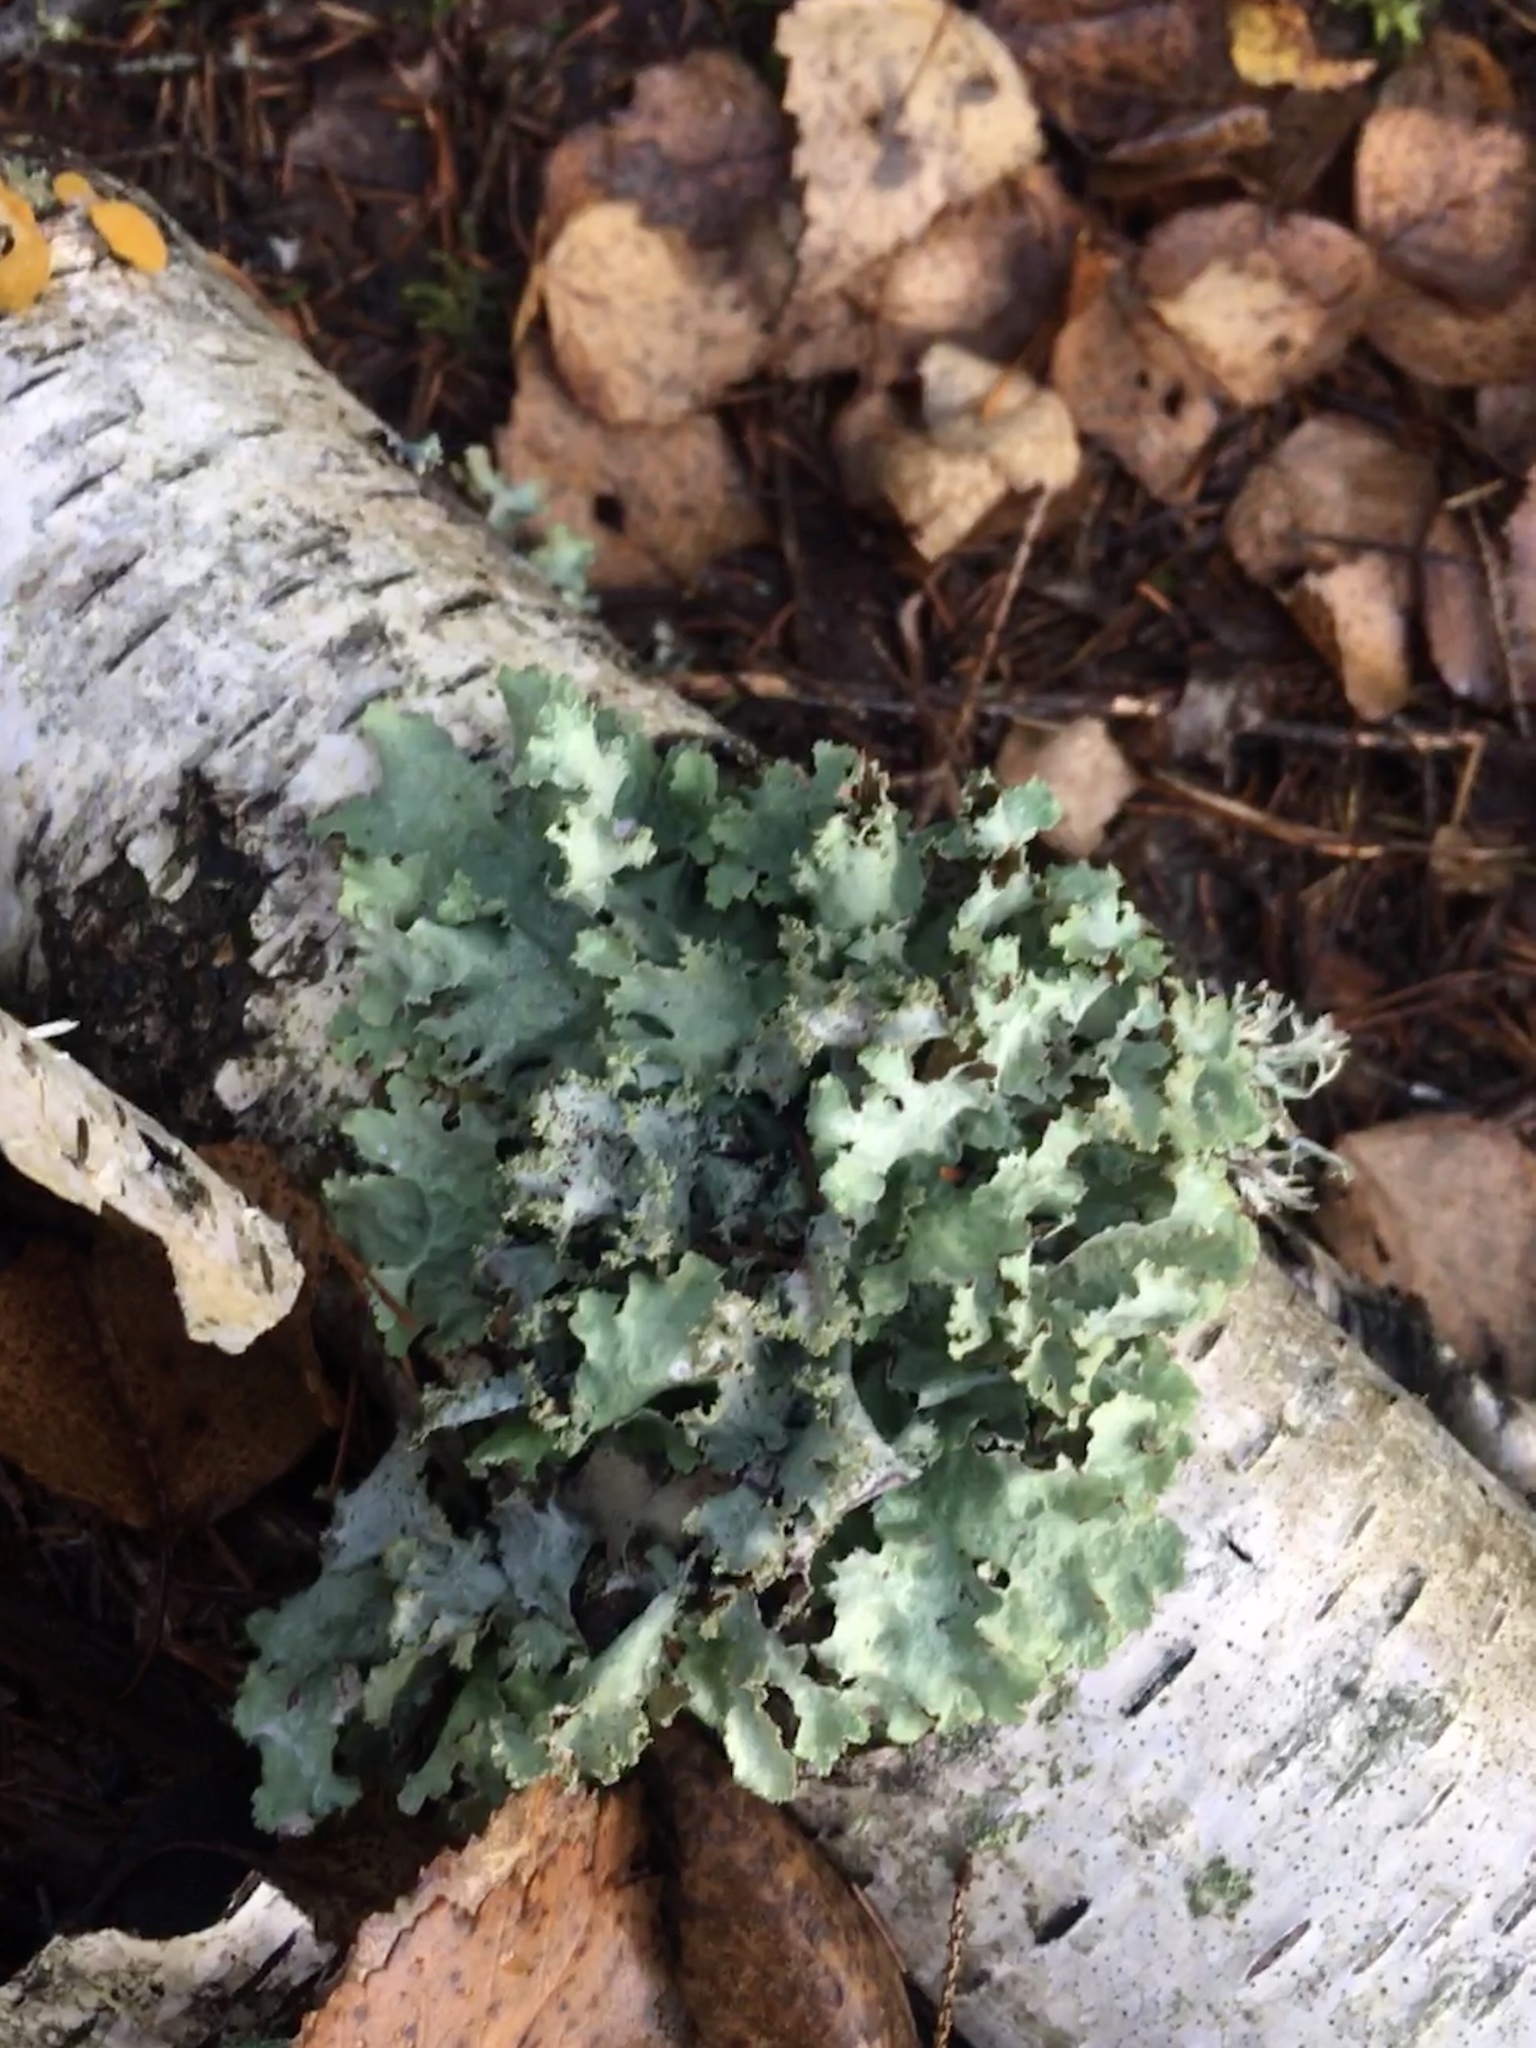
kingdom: Fungi
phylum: Ascomycota
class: Lecanoromycetes
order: Lecanorales
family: Parmeliaceae
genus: Platismatia
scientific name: Platismatia glauca
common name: Varied rag lichen
